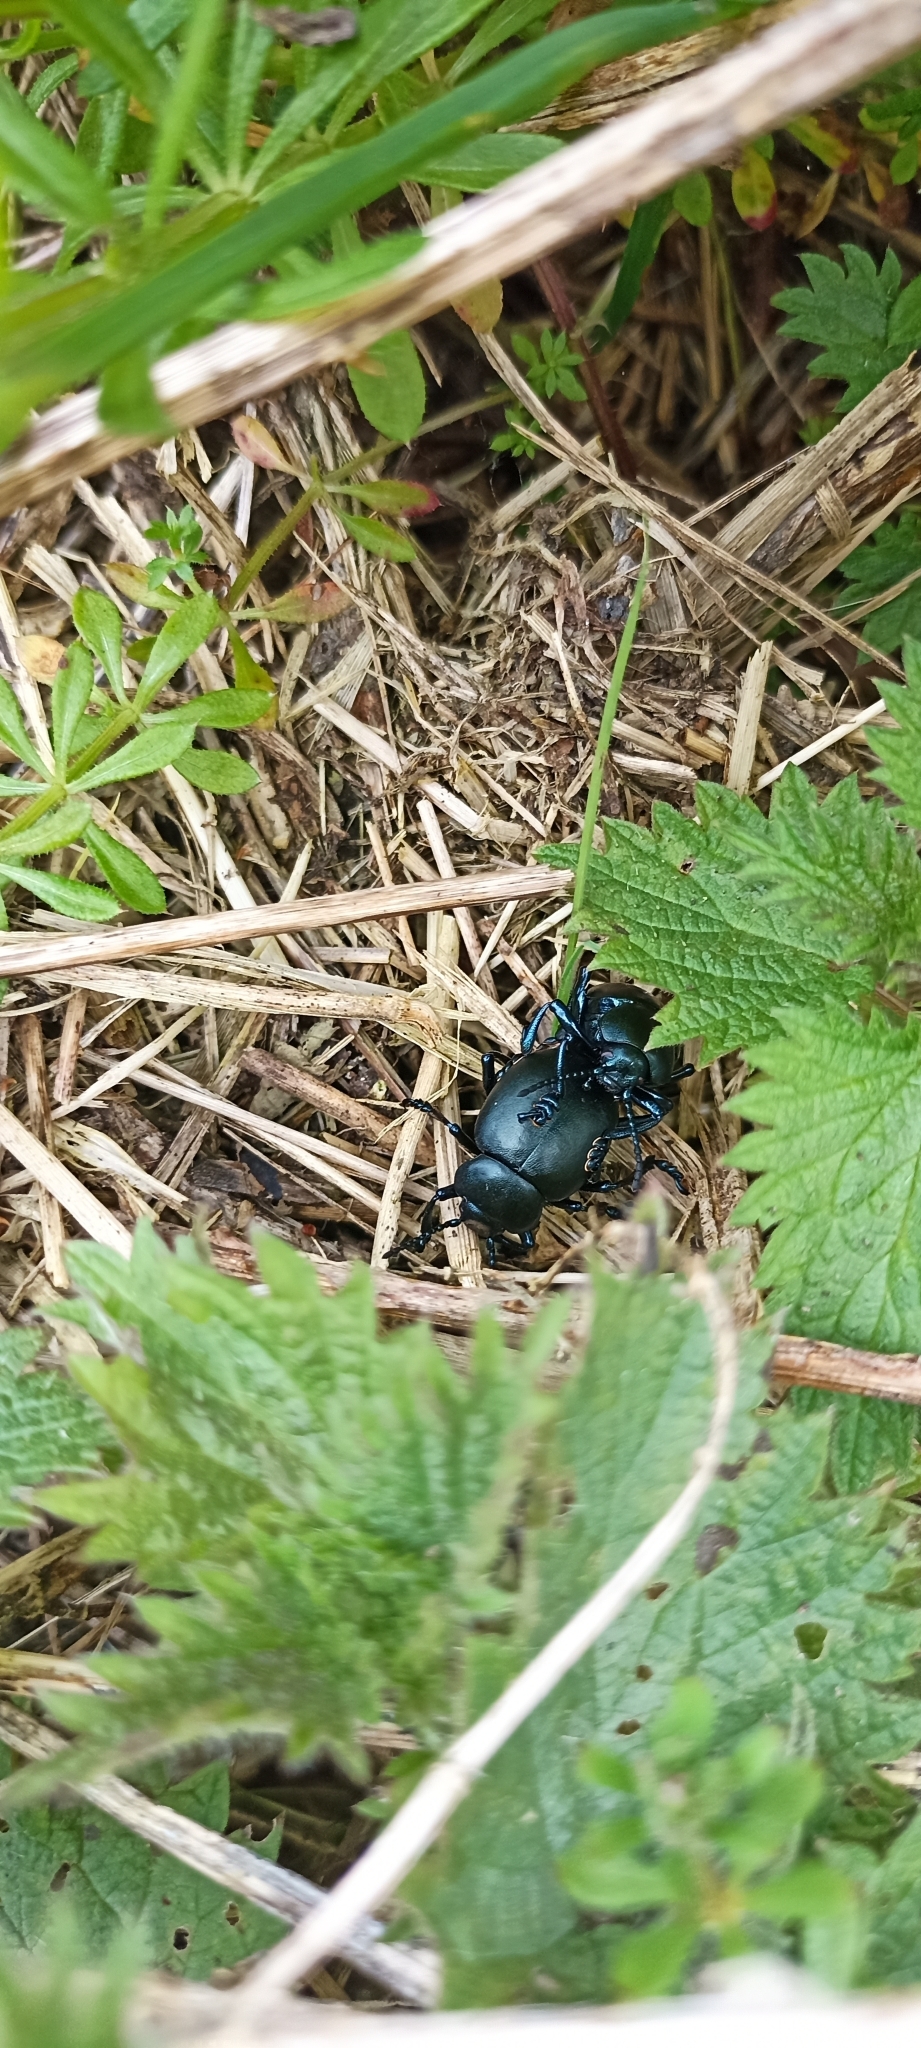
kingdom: Animalia
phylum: Arthropoda
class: Insecta
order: Coleoptera
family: Chrysomelidae
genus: Timarcha
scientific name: Timarcha tenebricosa
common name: Bloody-nosed beetle
